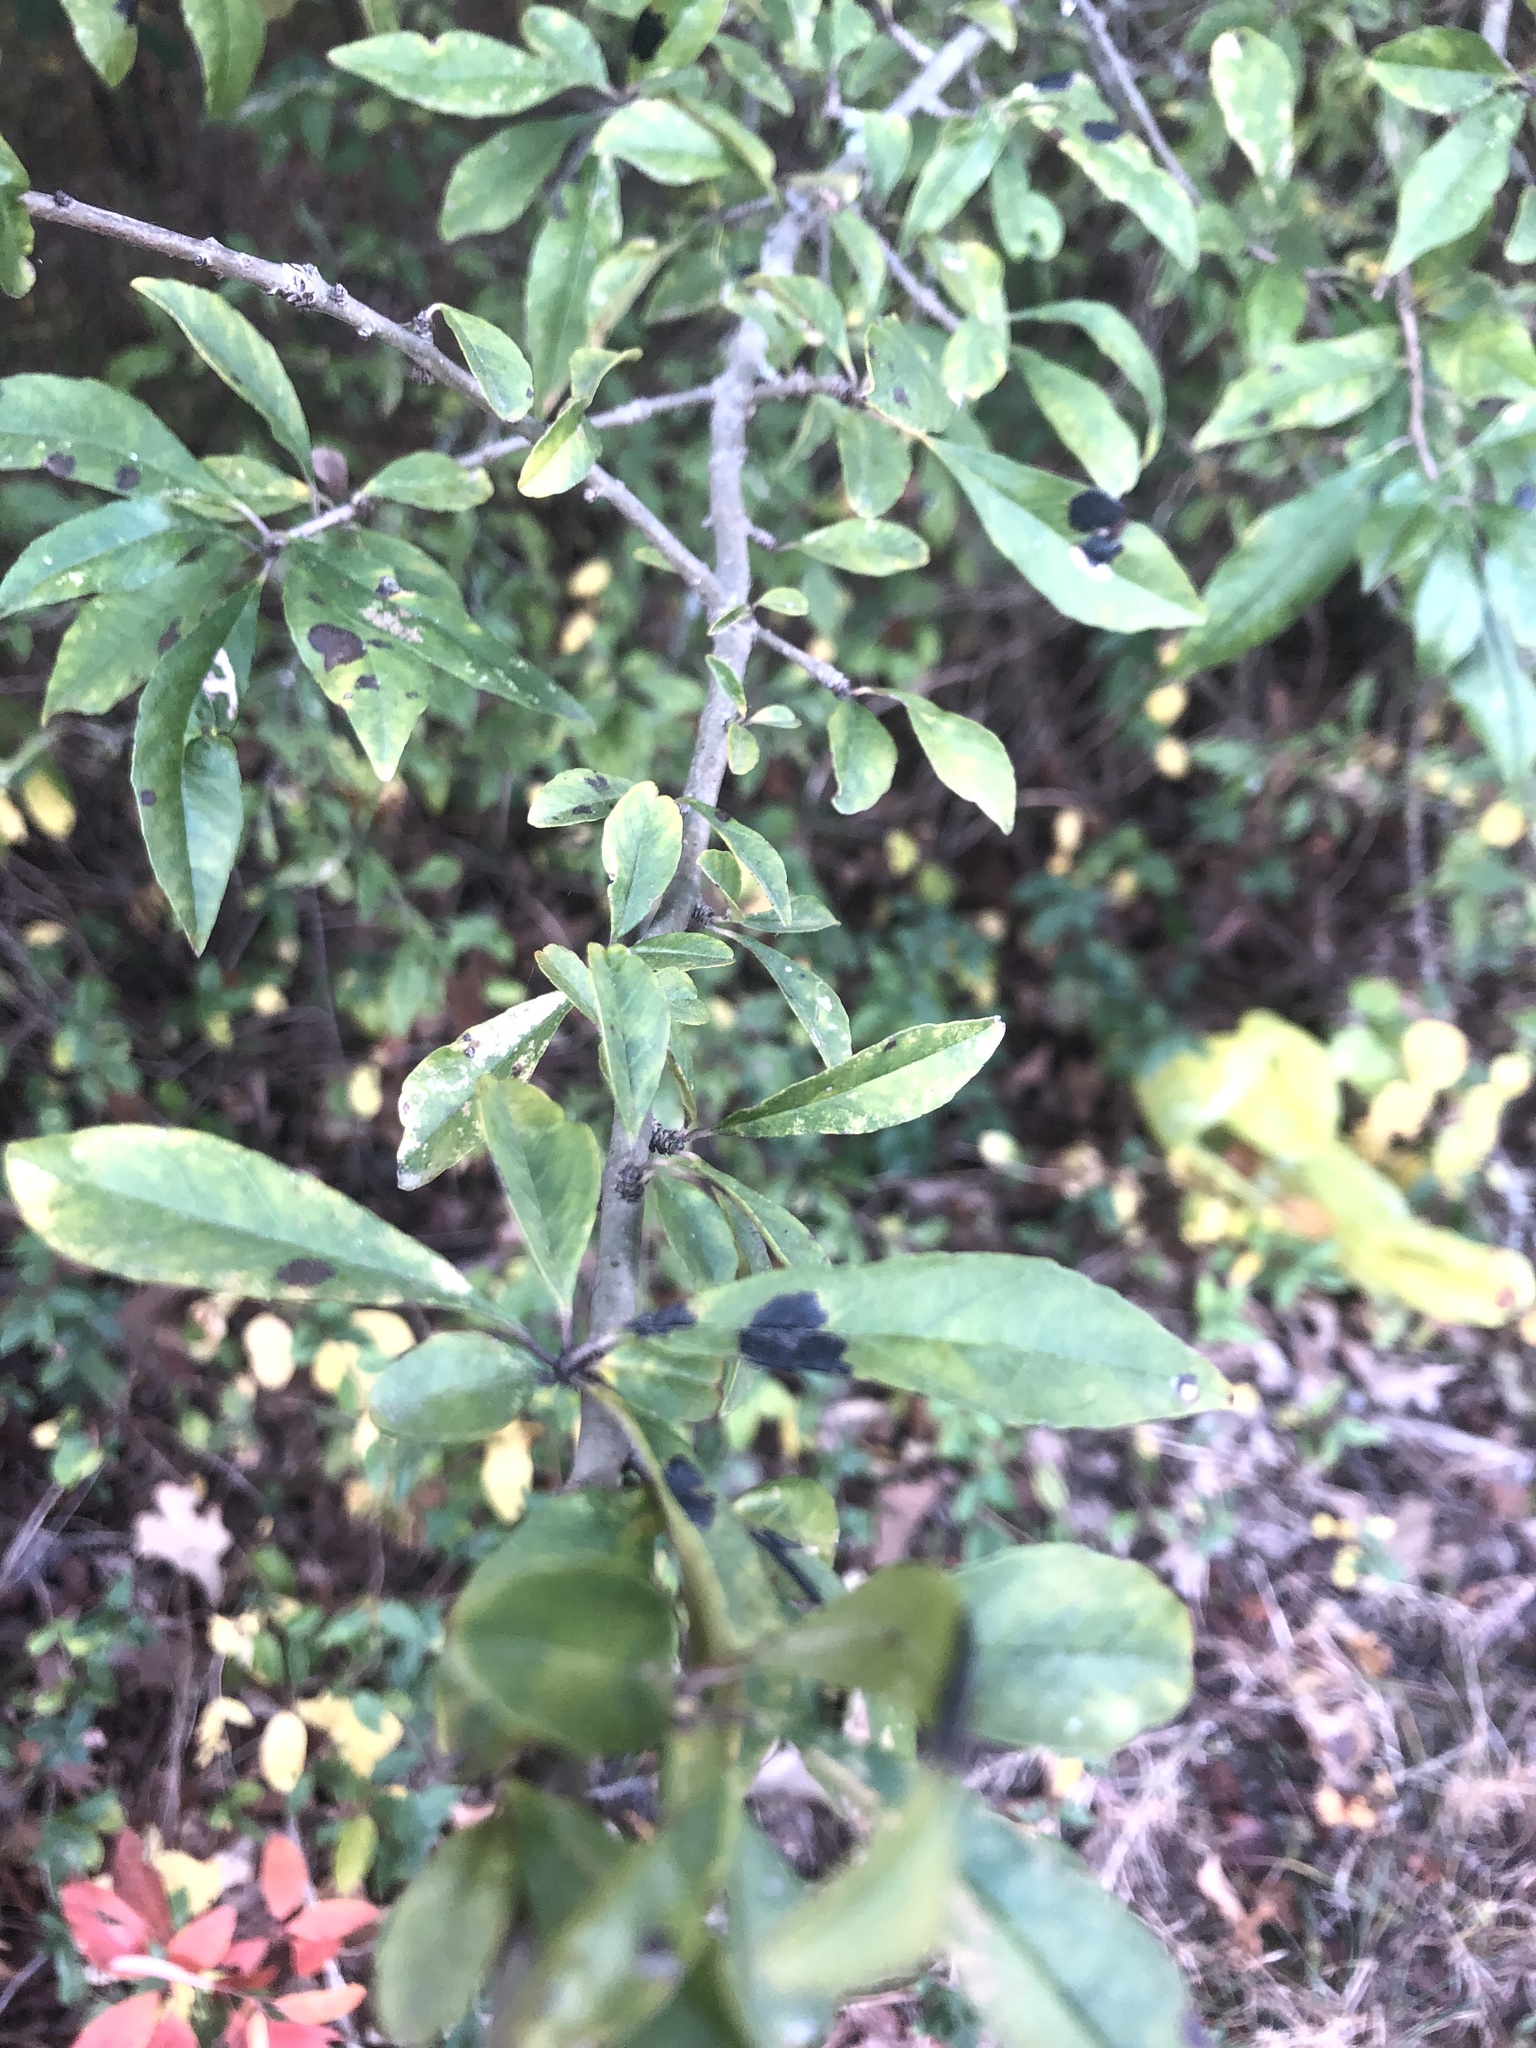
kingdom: Plantae
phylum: Tracheophyta
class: Magnoliopsida
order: Aquifoliales
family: Aquifoliaceae
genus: Ilex
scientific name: Ilex decidua
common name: Possum-haw
